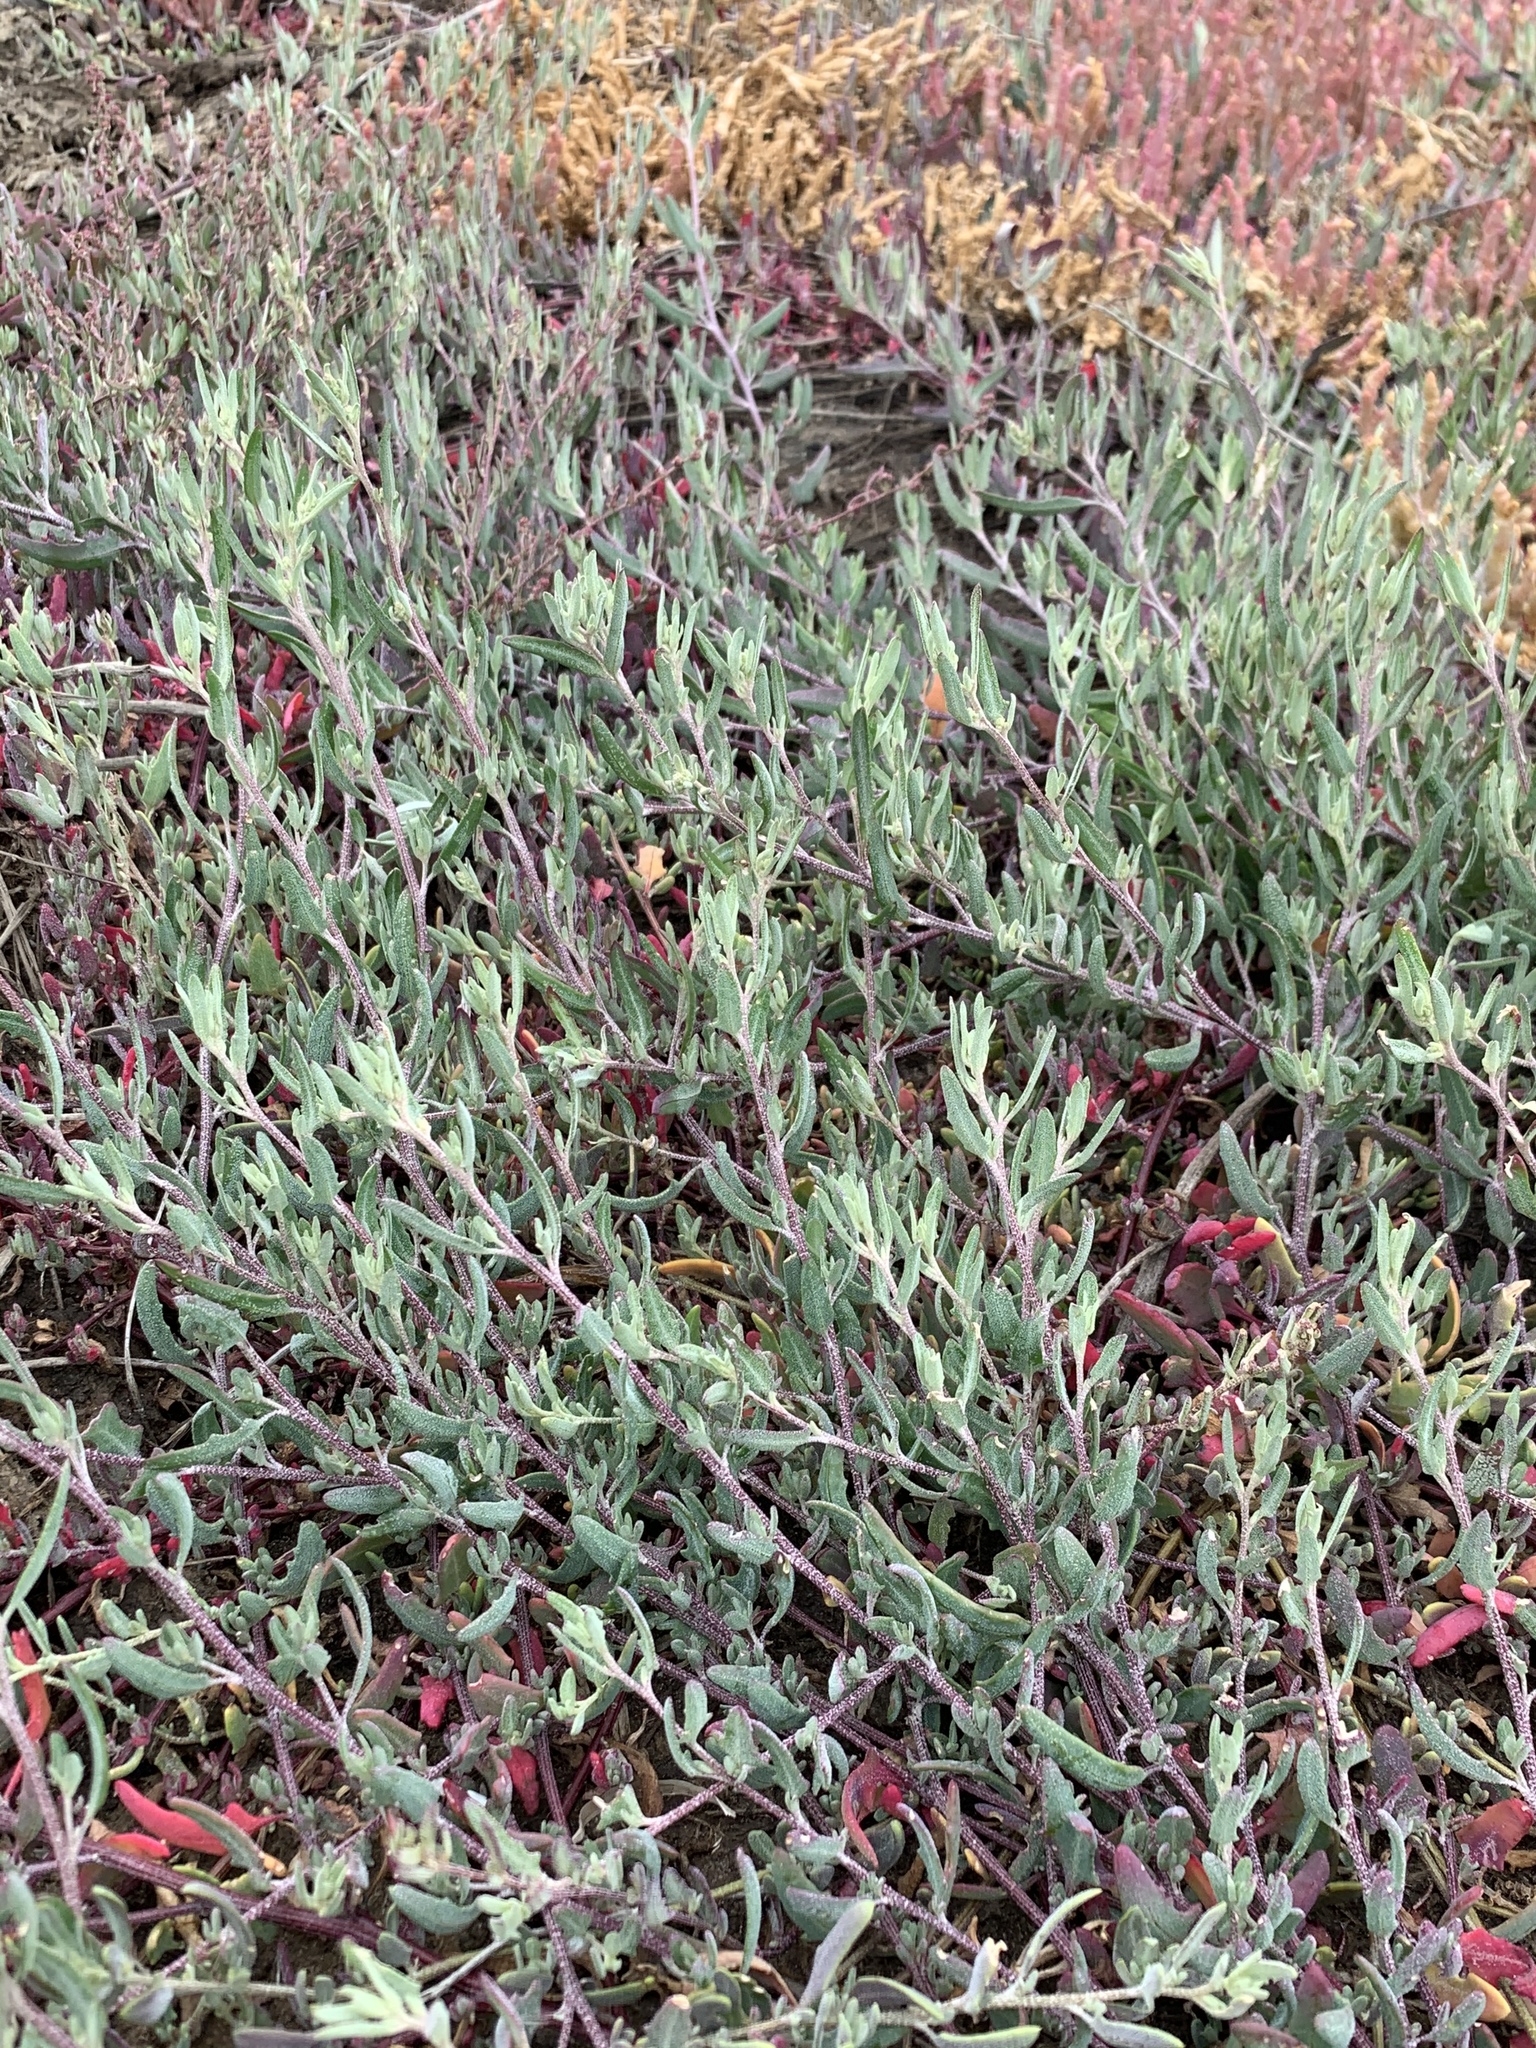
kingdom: Plantae
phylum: Tracheophyta
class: Magnoliopsida
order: Caryophyllales
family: Amaranthaceae
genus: Atriplex
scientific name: Atriplex patula
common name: Common orache
